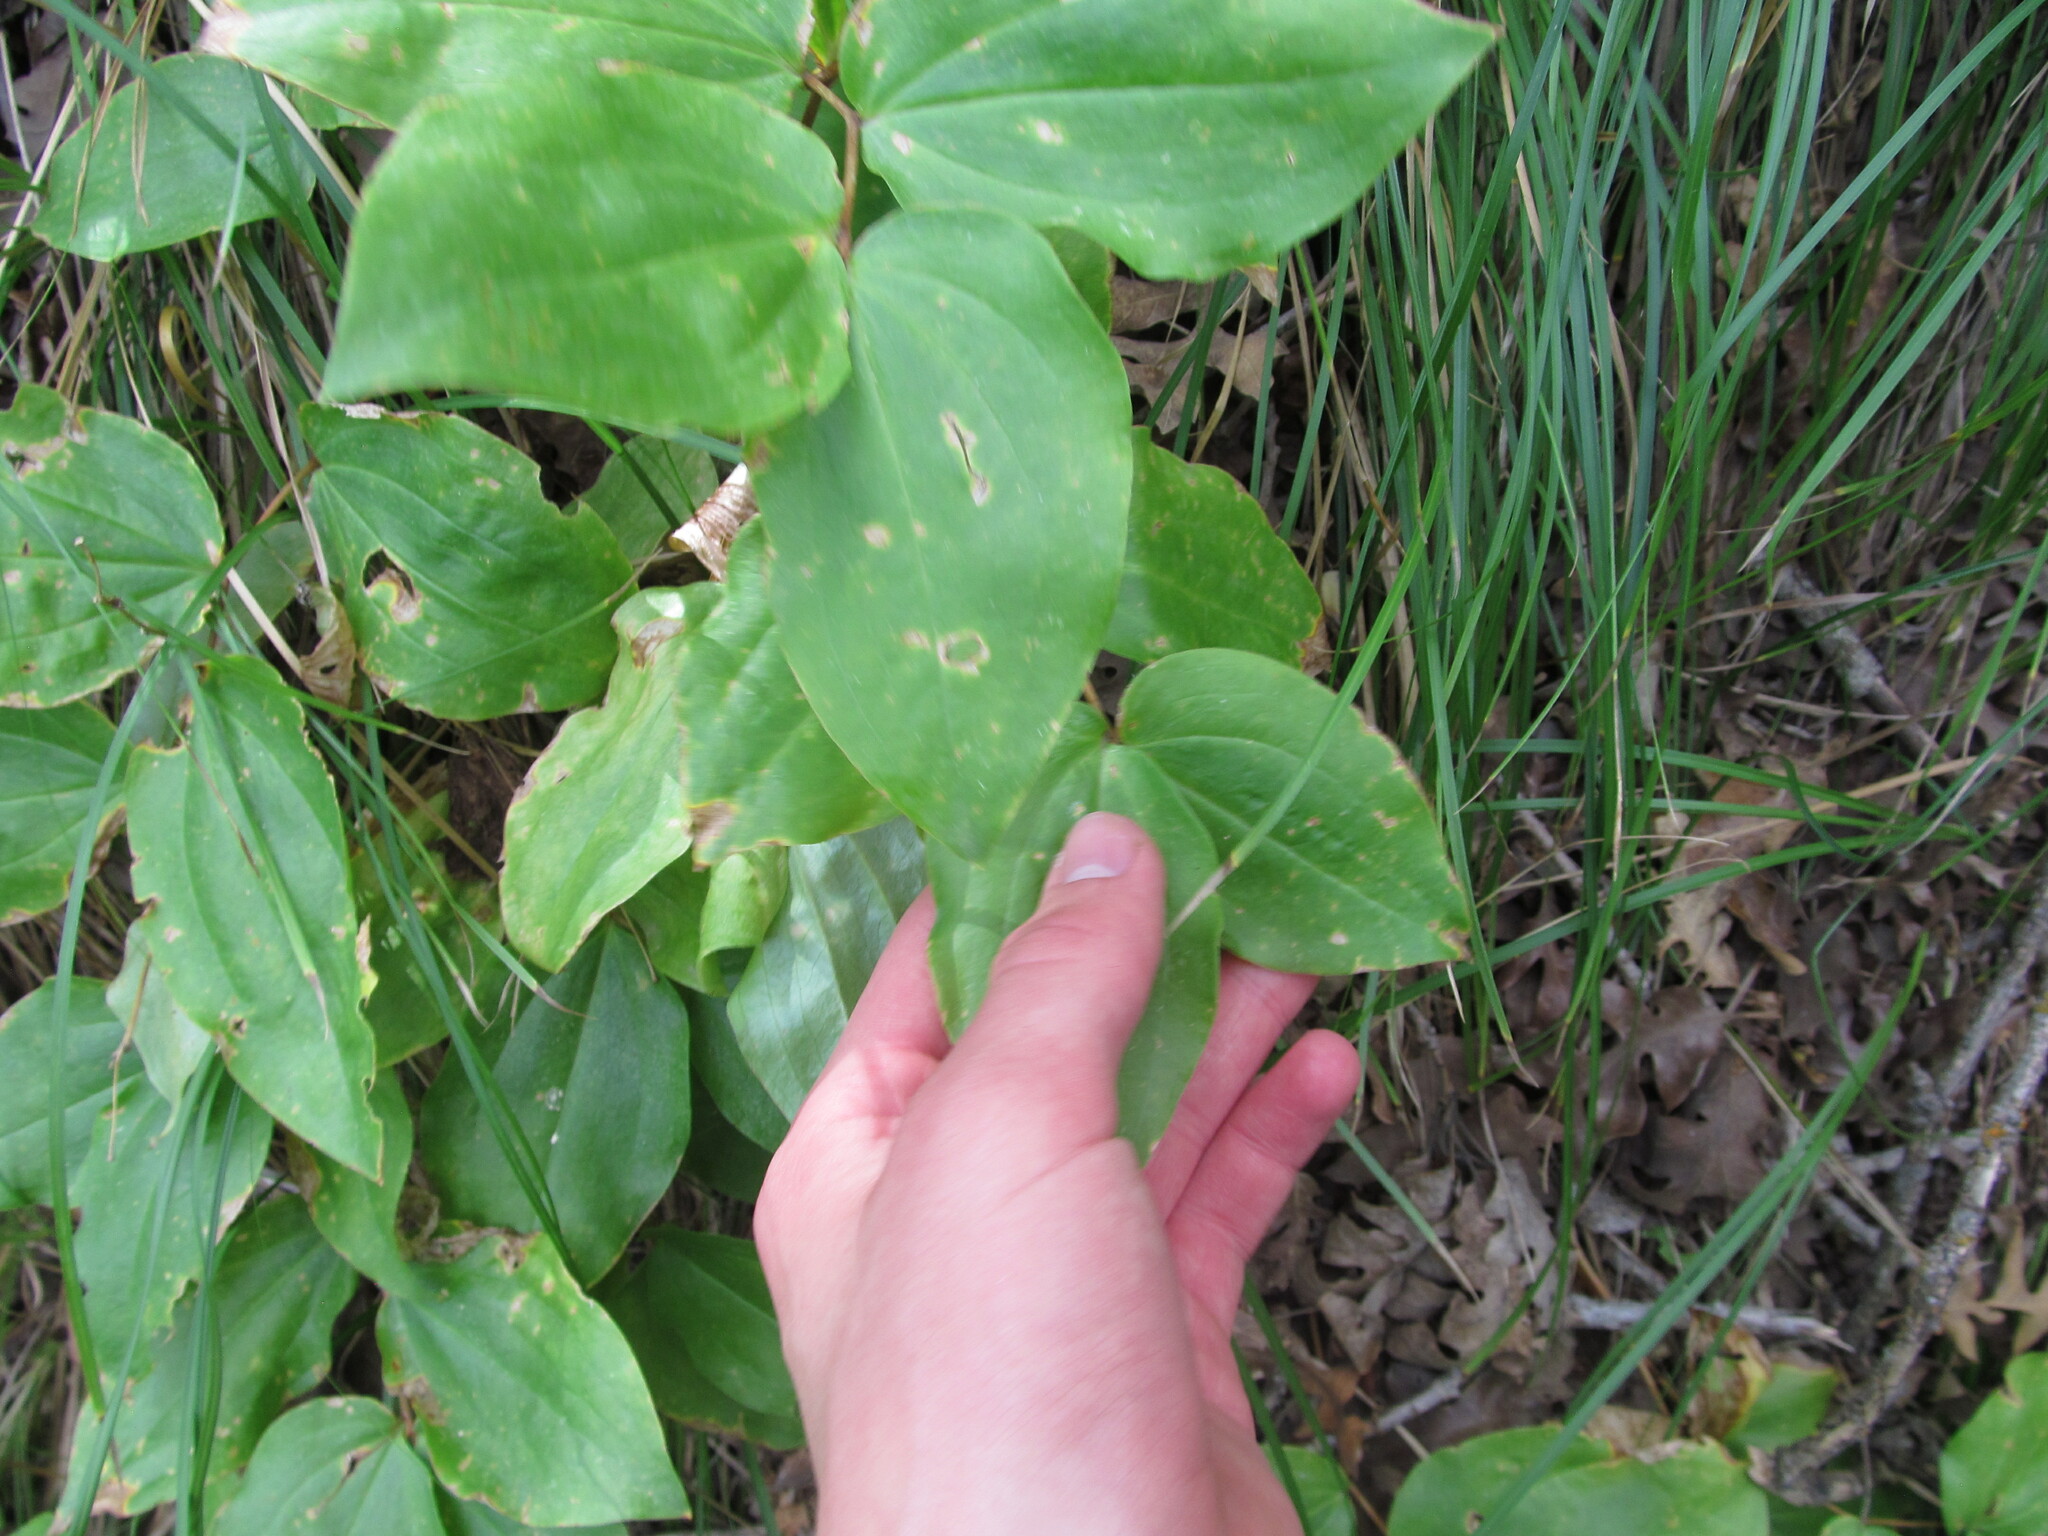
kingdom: Plantae
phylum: Tracheophyta
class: Liliopsida
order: Liliales
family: Liliaceae
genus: Prosartes
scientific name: Prosartes trachycarpa
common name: Rough-fruit fairy-bells
